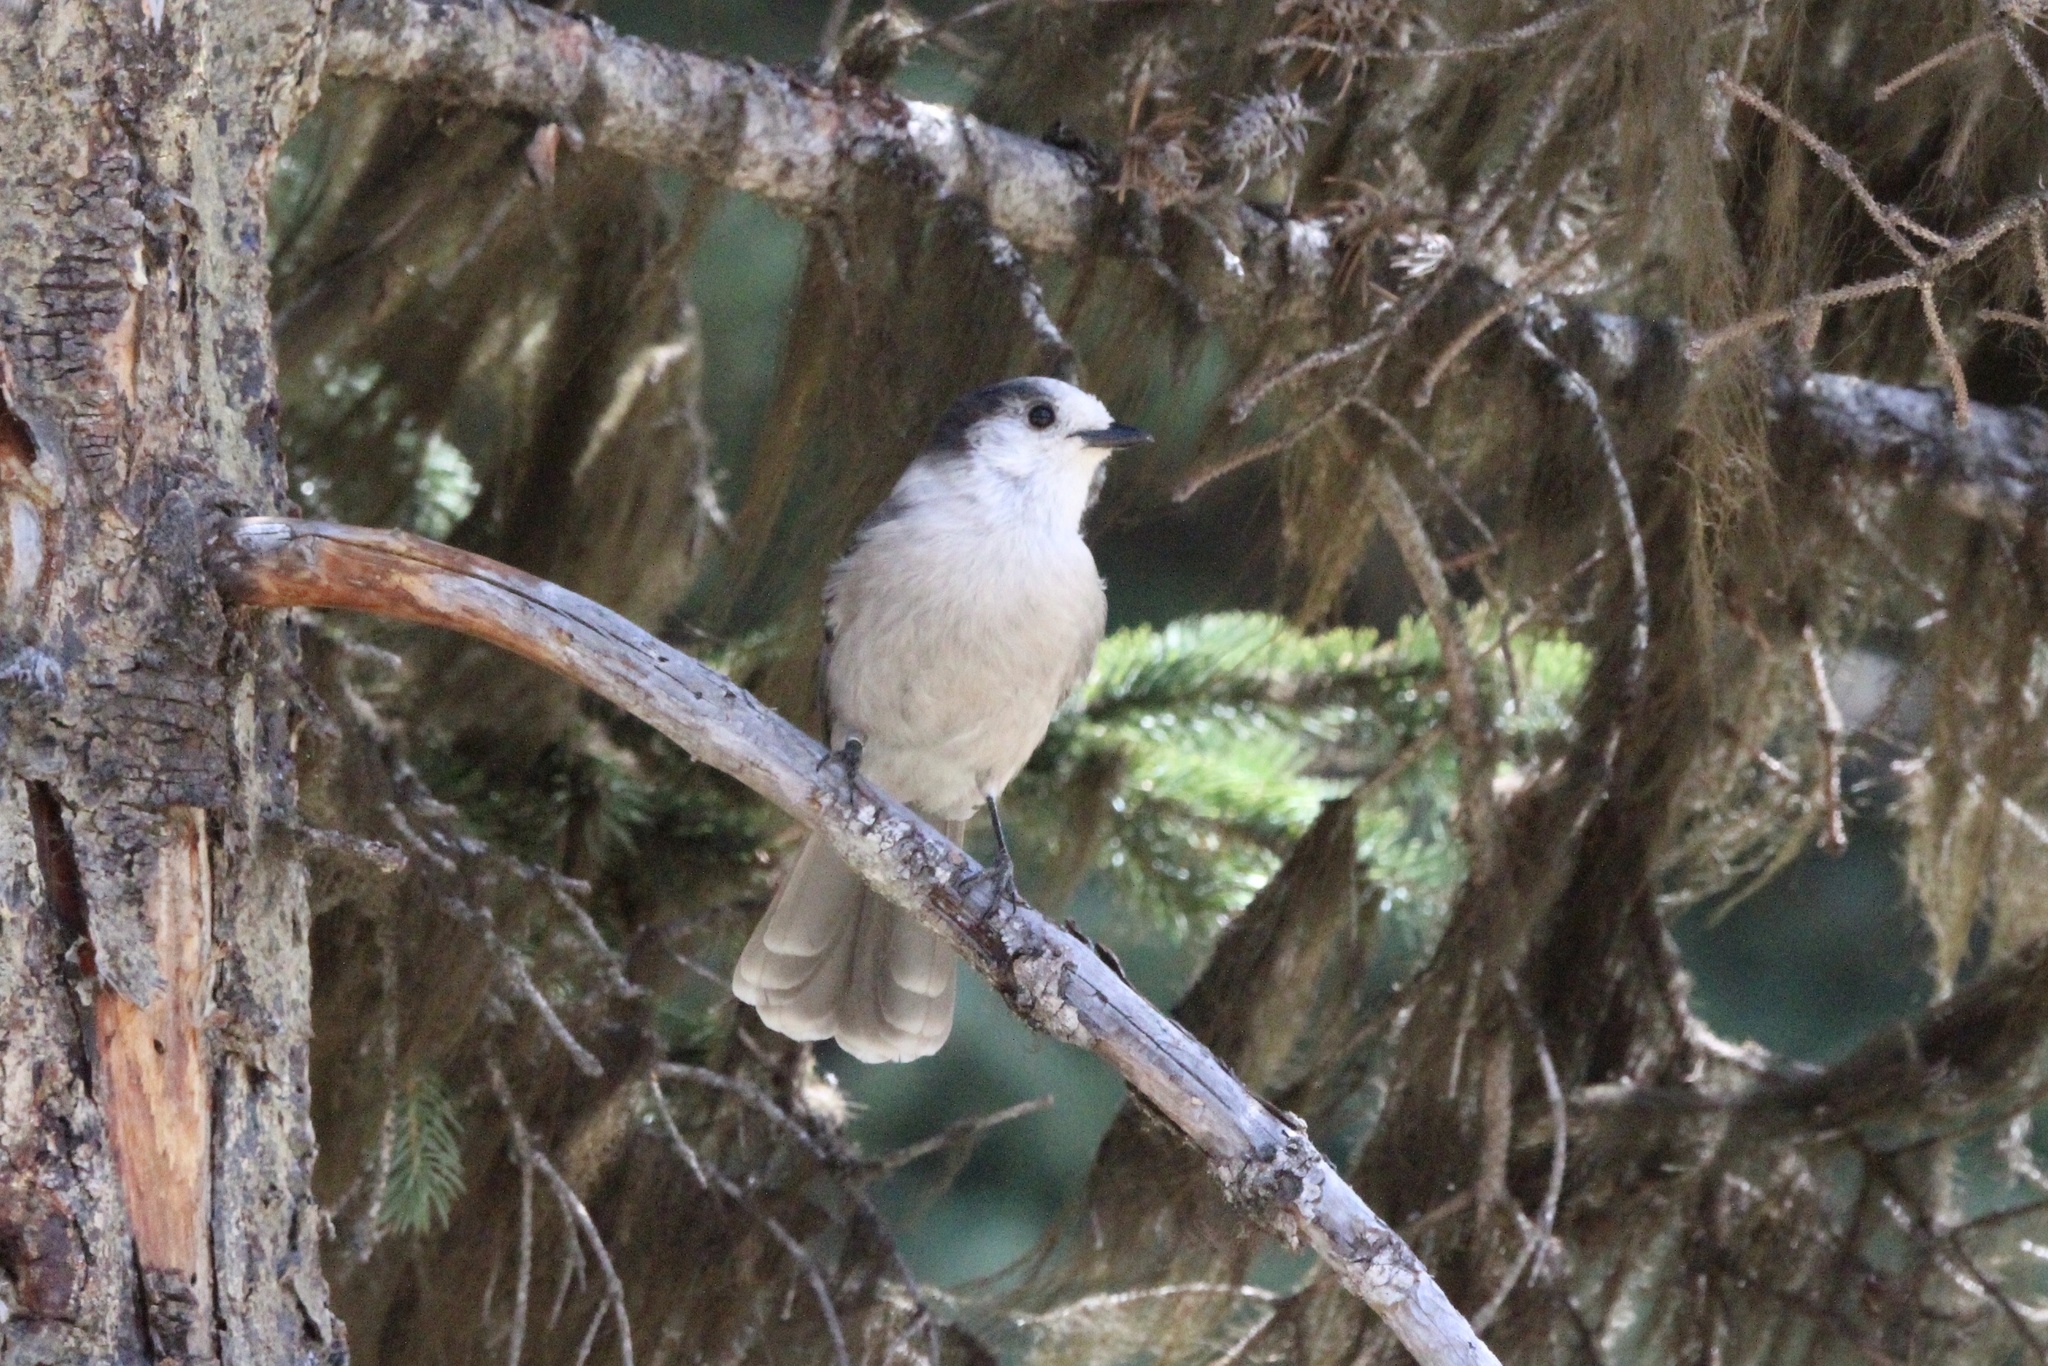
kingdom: Animalia
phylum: Chordata
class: Aves
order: Passeriformes
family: Corvidae
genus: Perisoreus
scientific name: Perisoreus canadensis
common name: Gray jay
